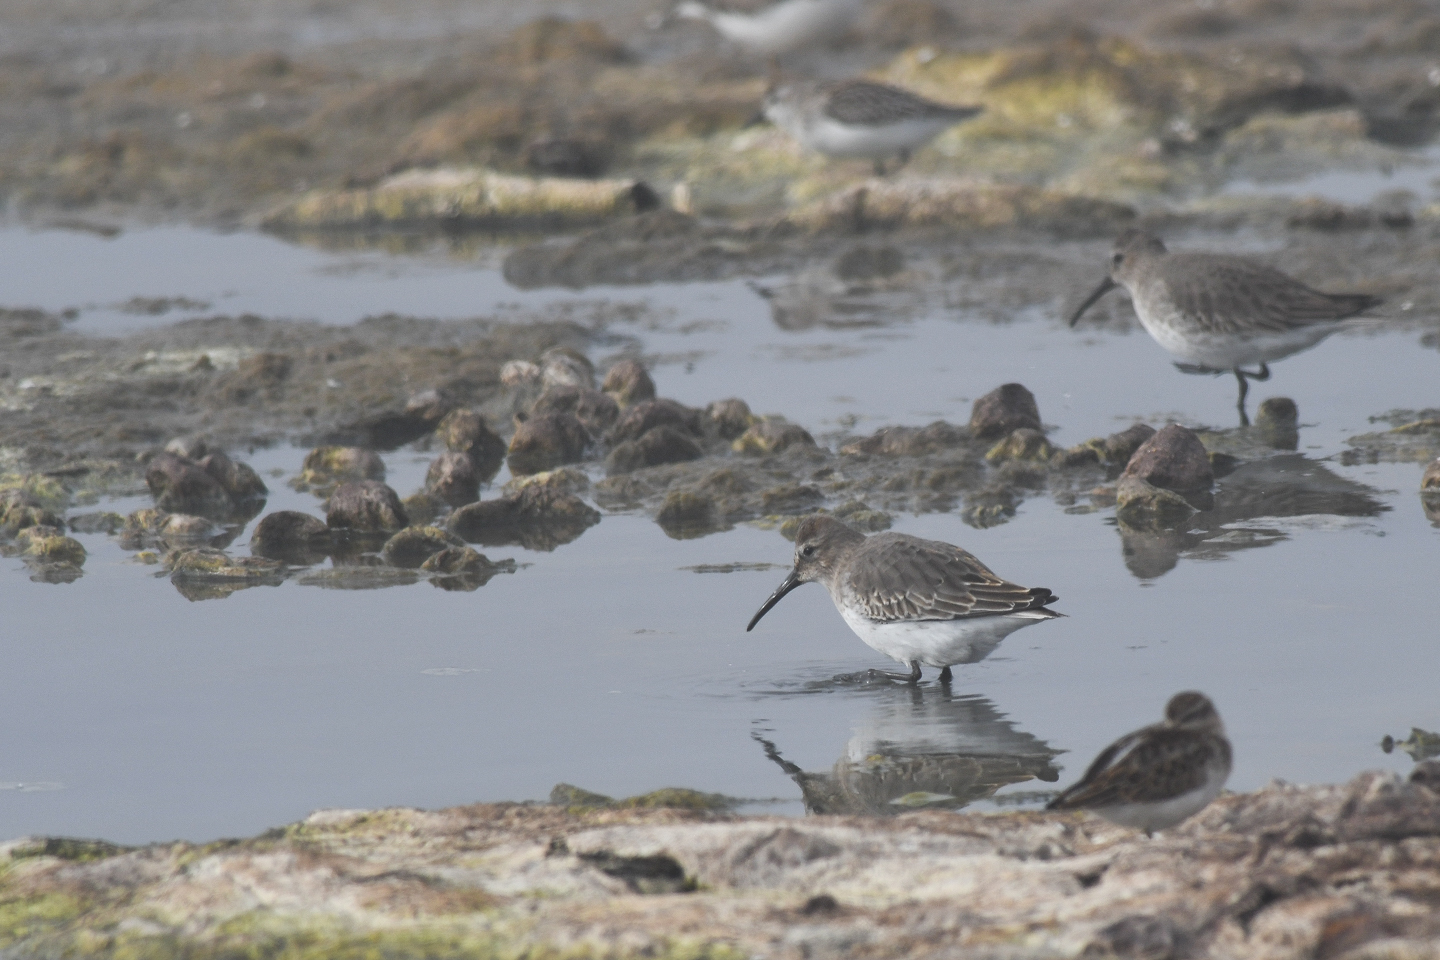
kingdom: Animalia
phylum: Chordata
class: Aves
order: Charadriiformes
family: Scolopacidae
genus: Calidris
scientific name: Calidris alpina
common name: Dunlin
